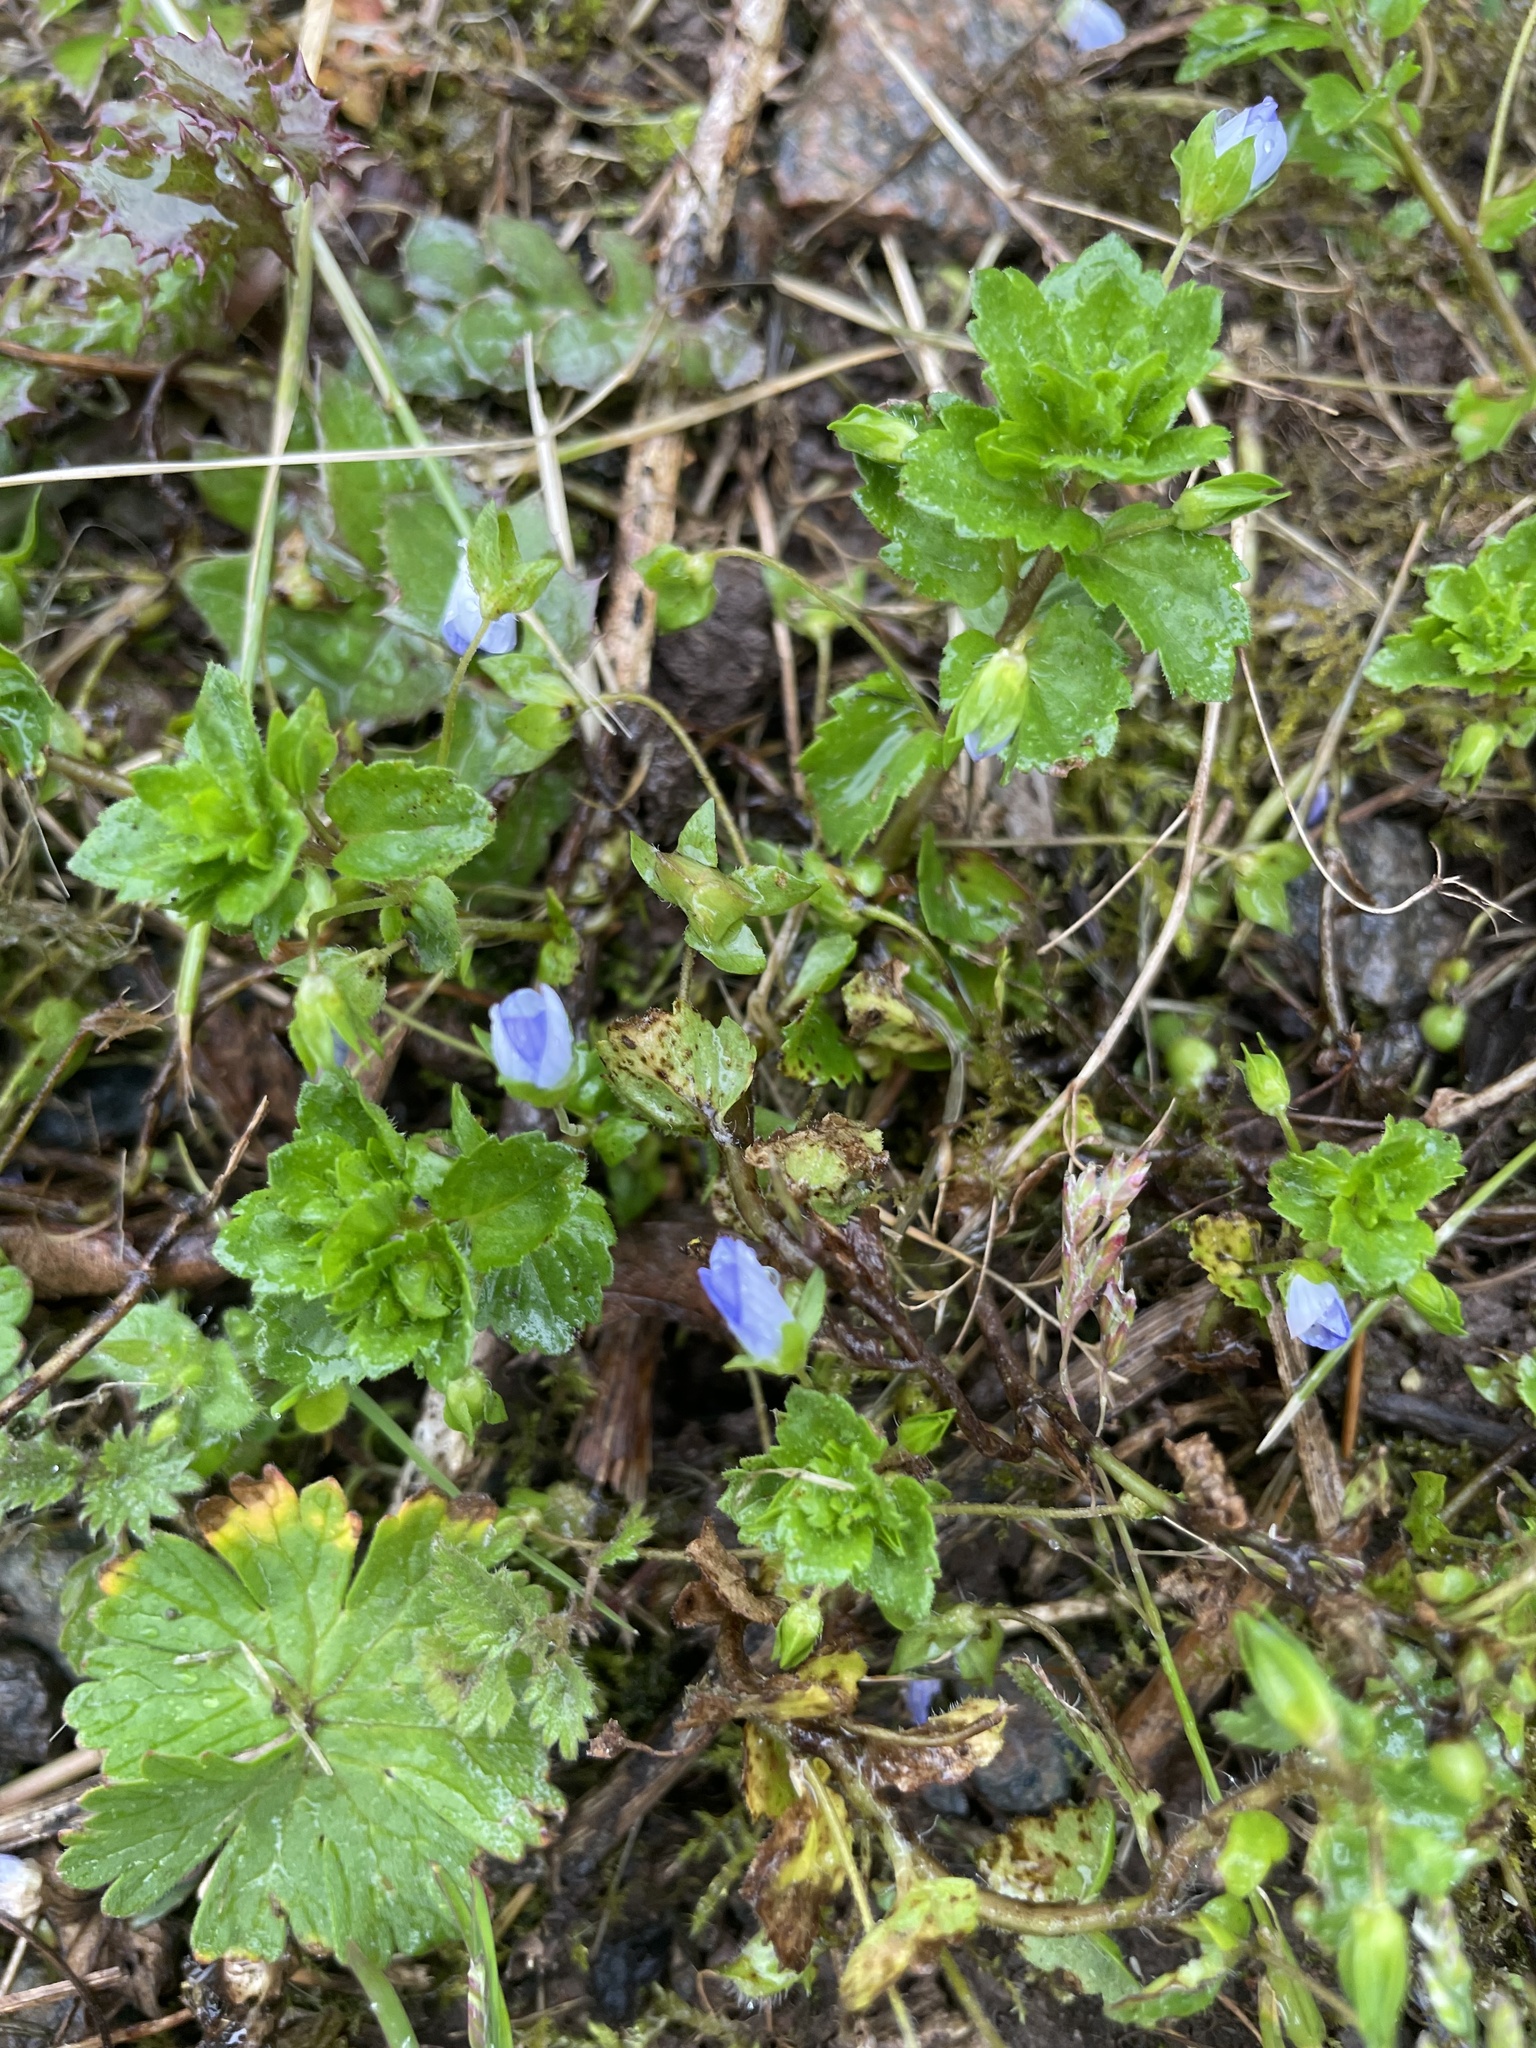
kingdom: Plantae
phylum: Tracheophyta
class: Magnoliopsida
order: Lamiales
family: Plantaginaceae
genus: Veronica
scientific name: Veronica persica
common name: Common field-speedwell
